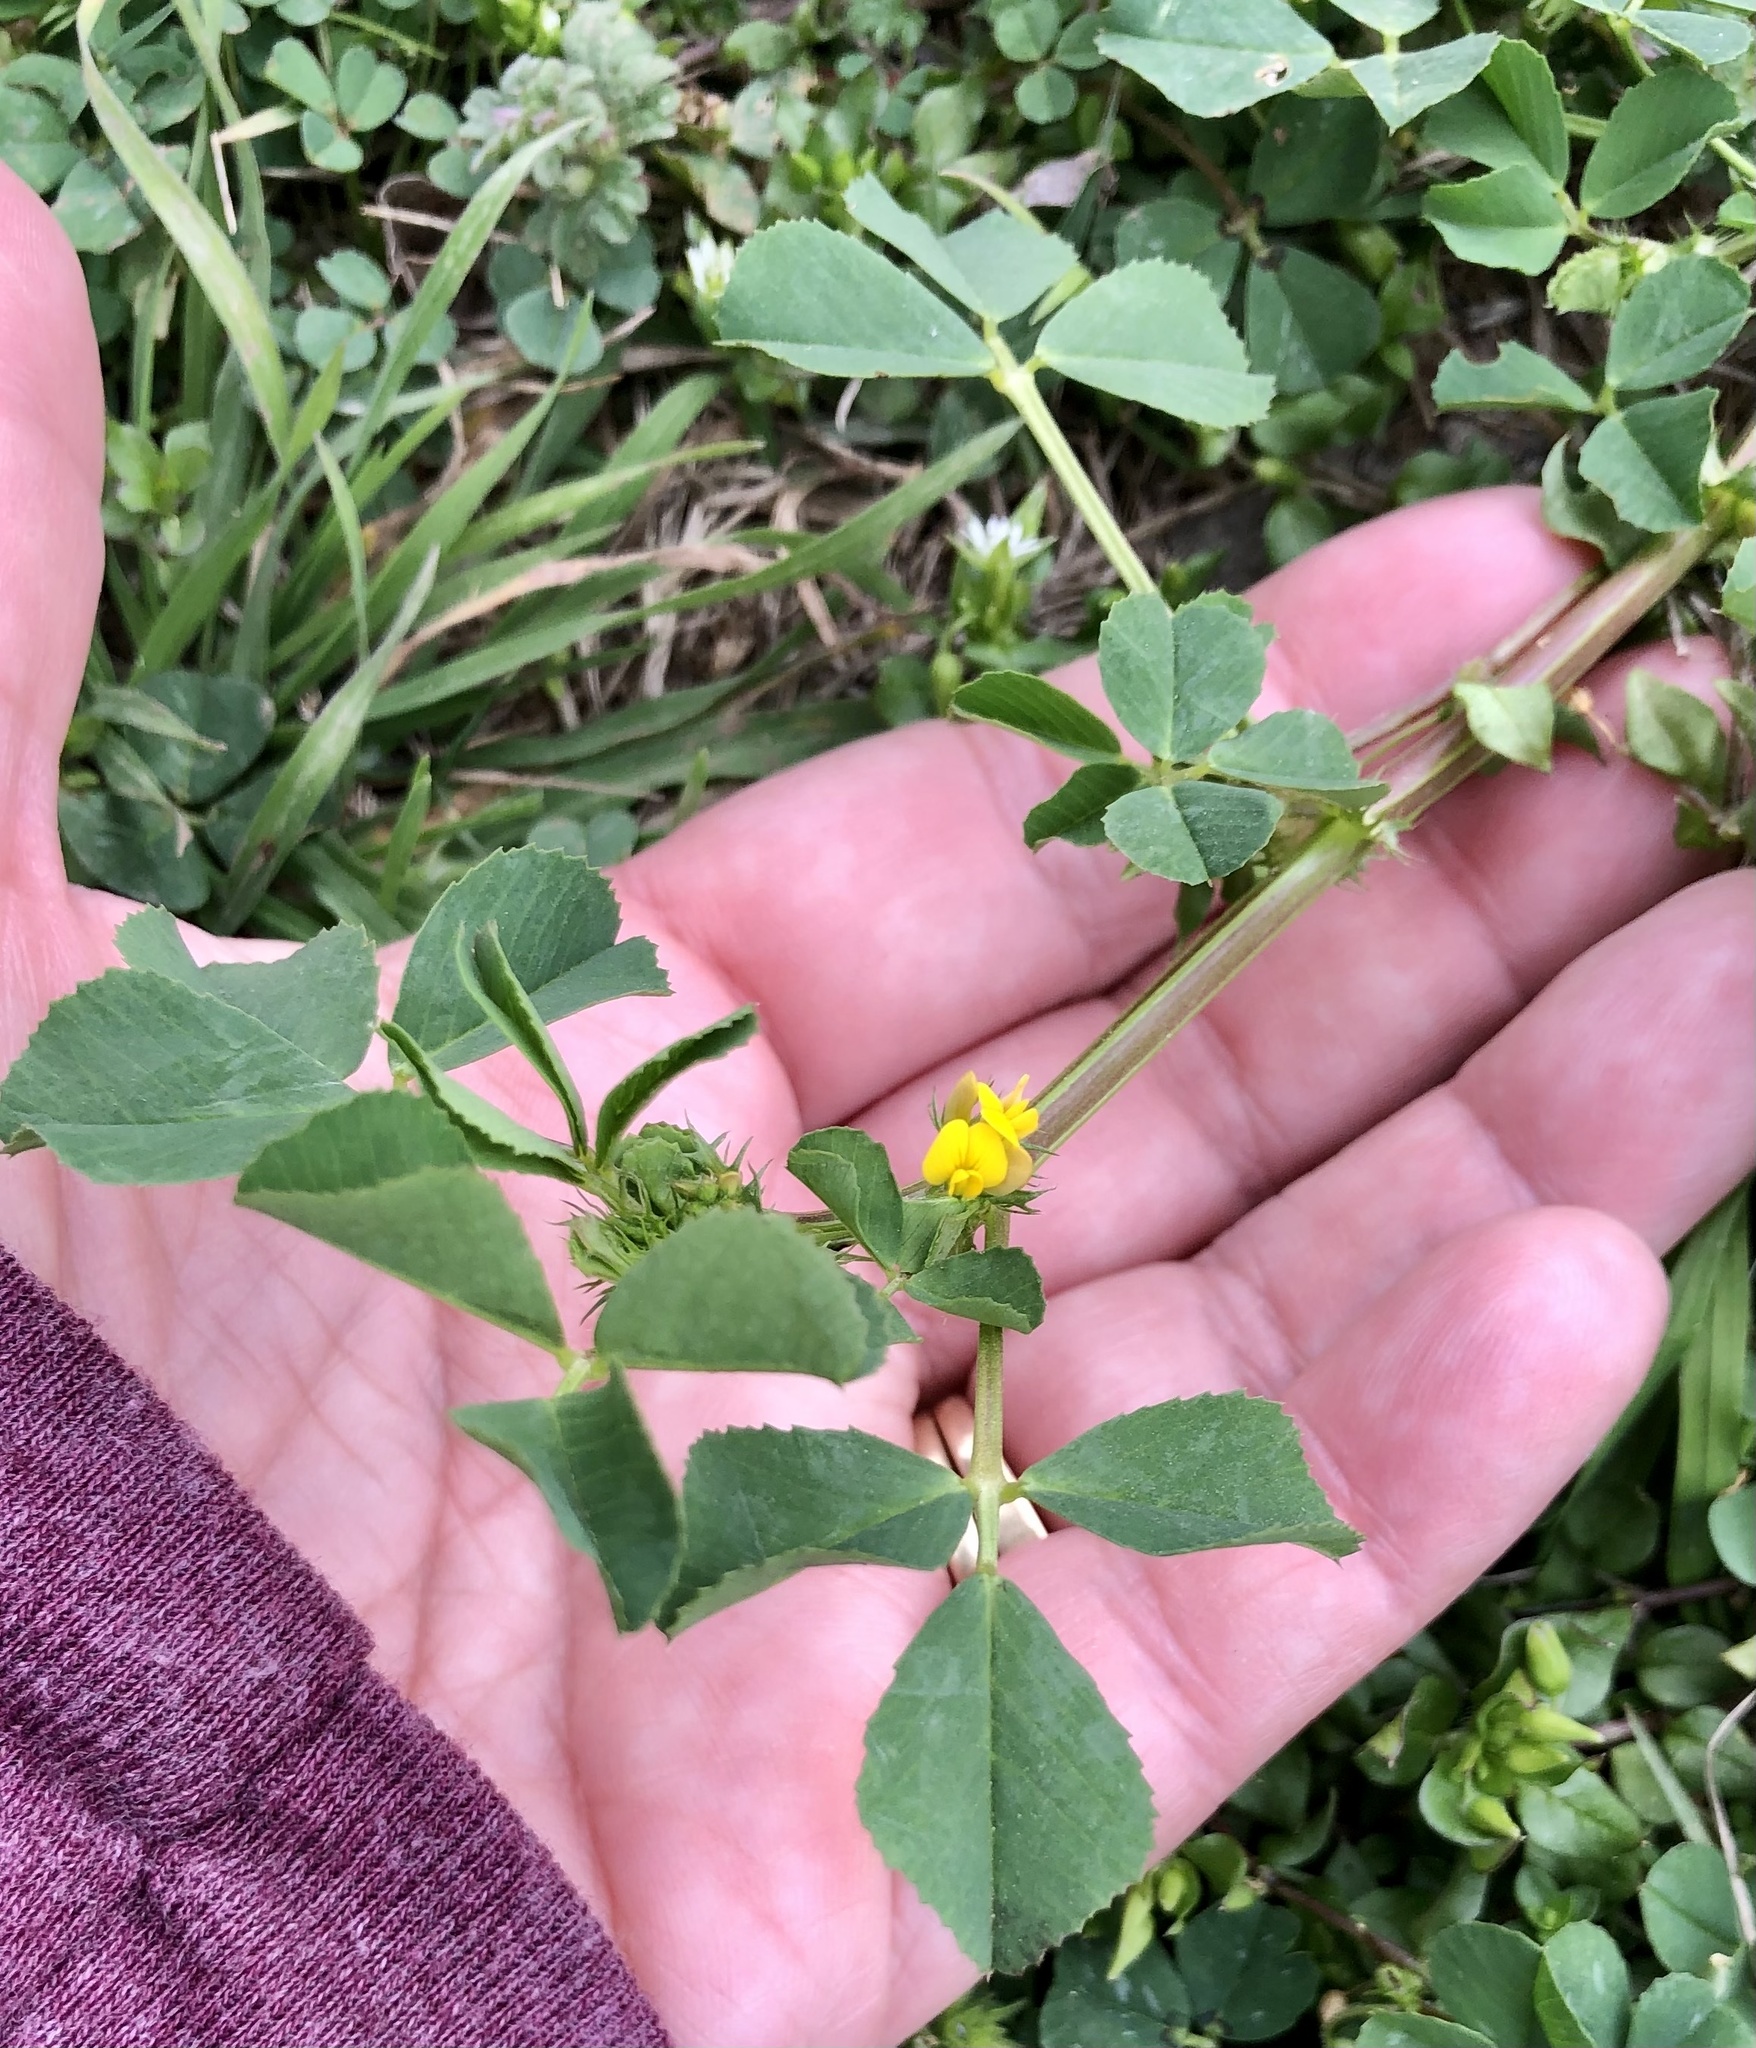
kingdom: Plantae
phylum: Tracheophyta
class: Magnoliopsida
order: Fabales
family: Fabaceae
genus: Medicago
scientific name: Medicago polymorpha
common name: Burclover
